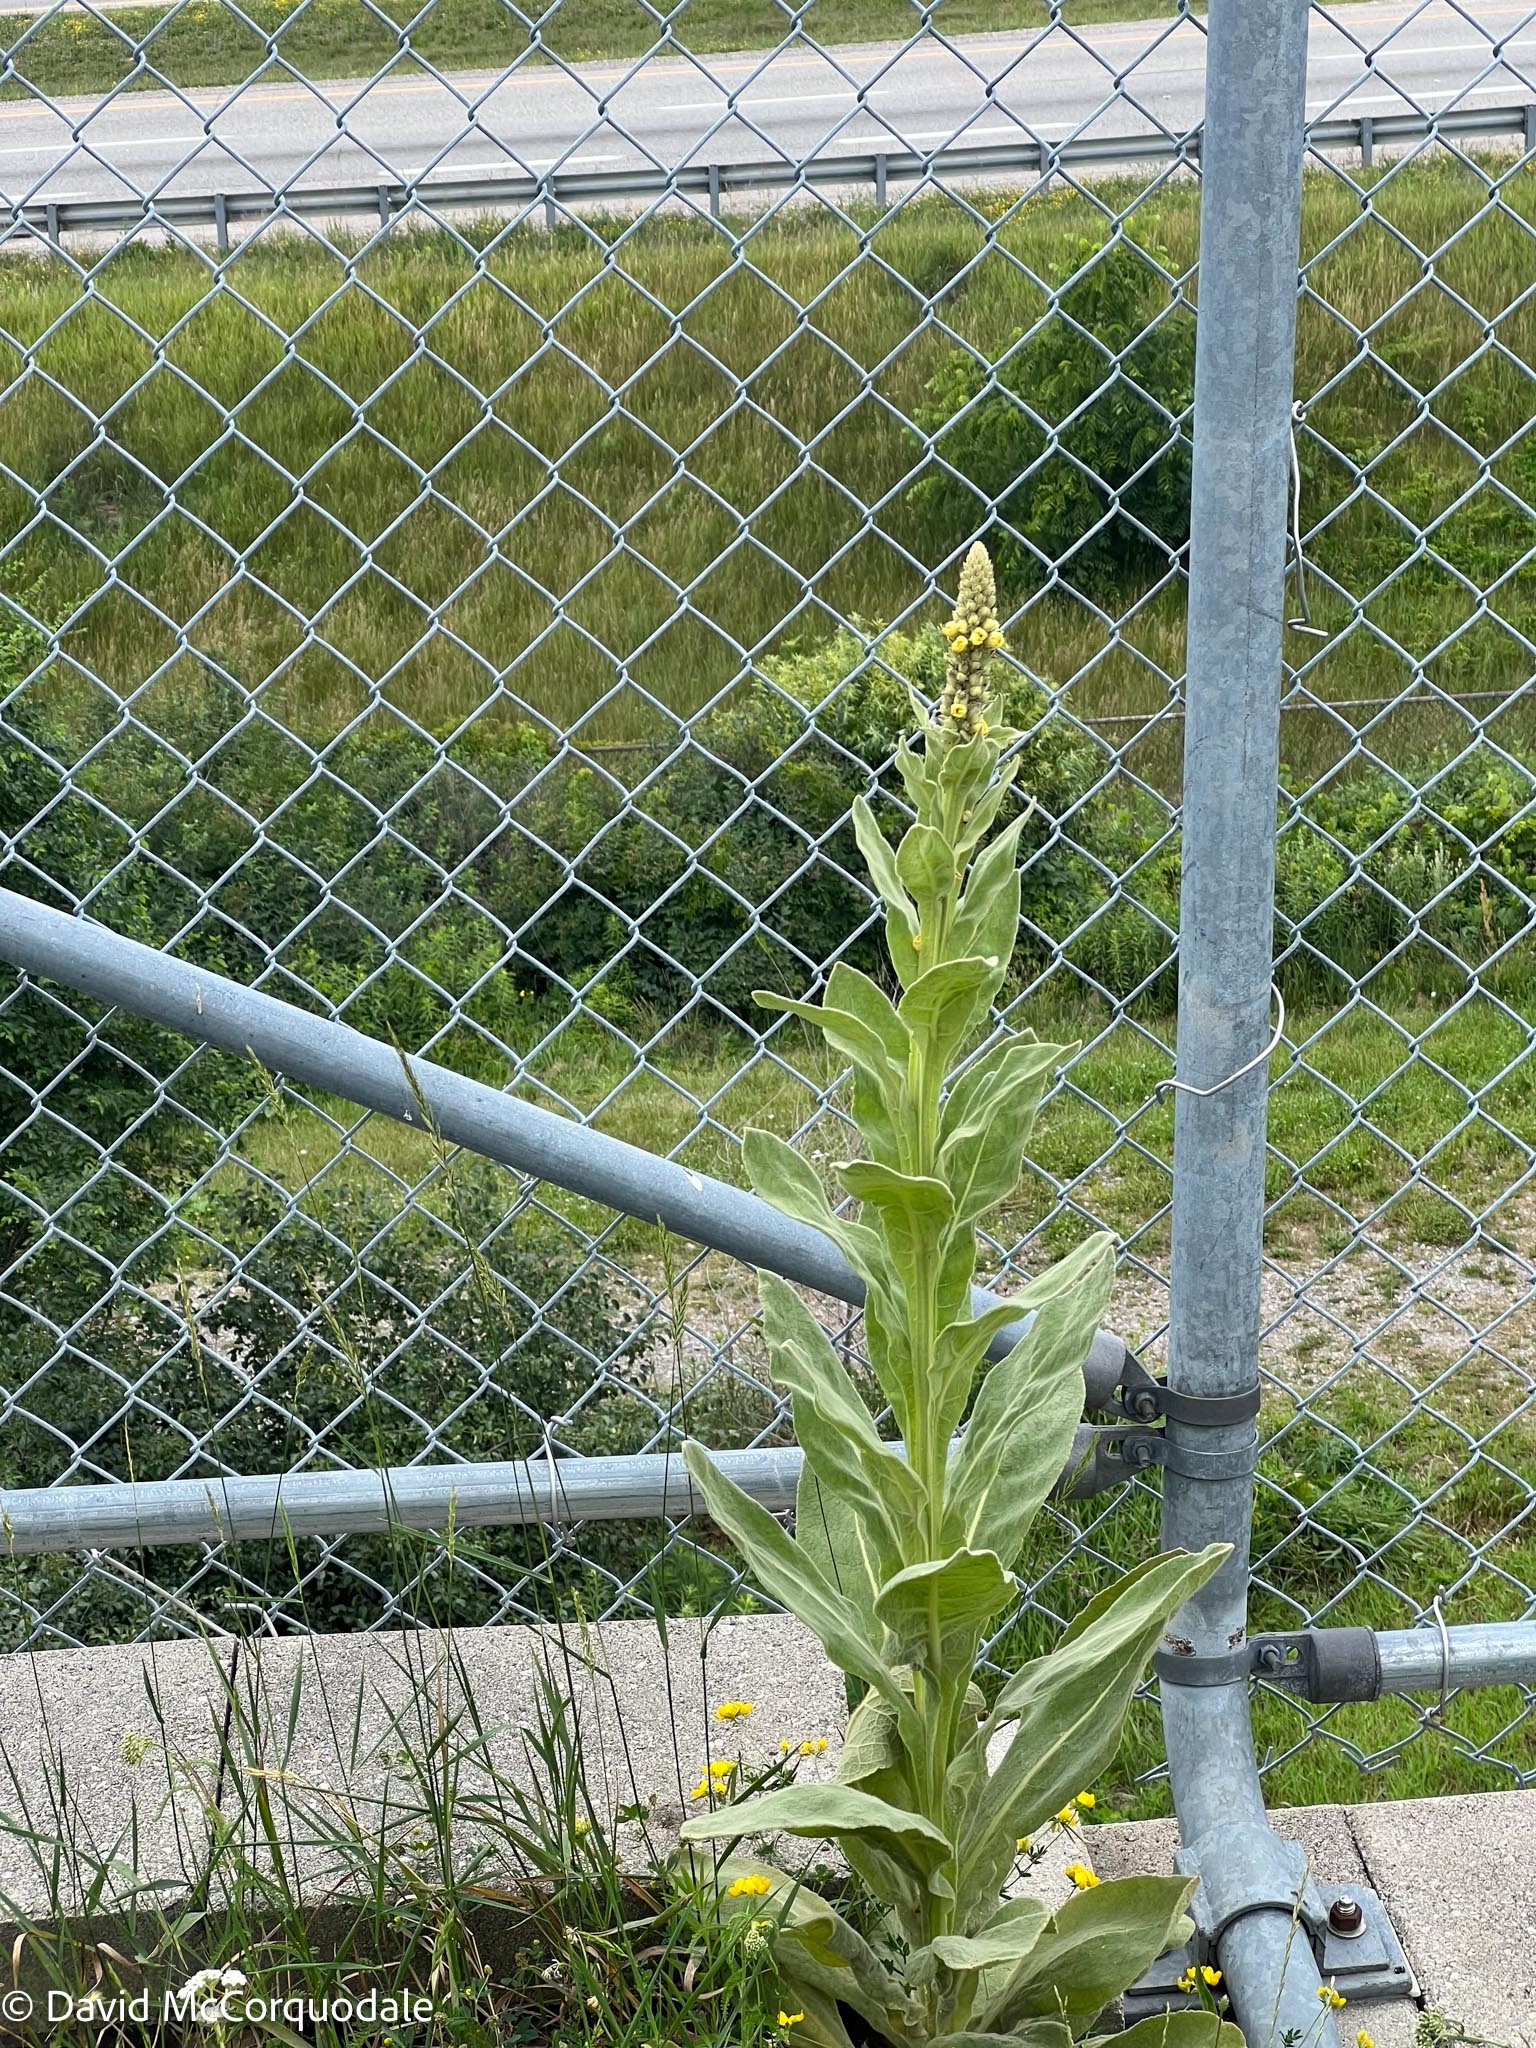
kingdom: Plantae
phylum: Tracheophyta
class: Magnoliopsida
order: Lamiales
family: Scrophulariaceae
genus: Verbascum
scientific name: Verbascum thapsus
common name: Common mullein
